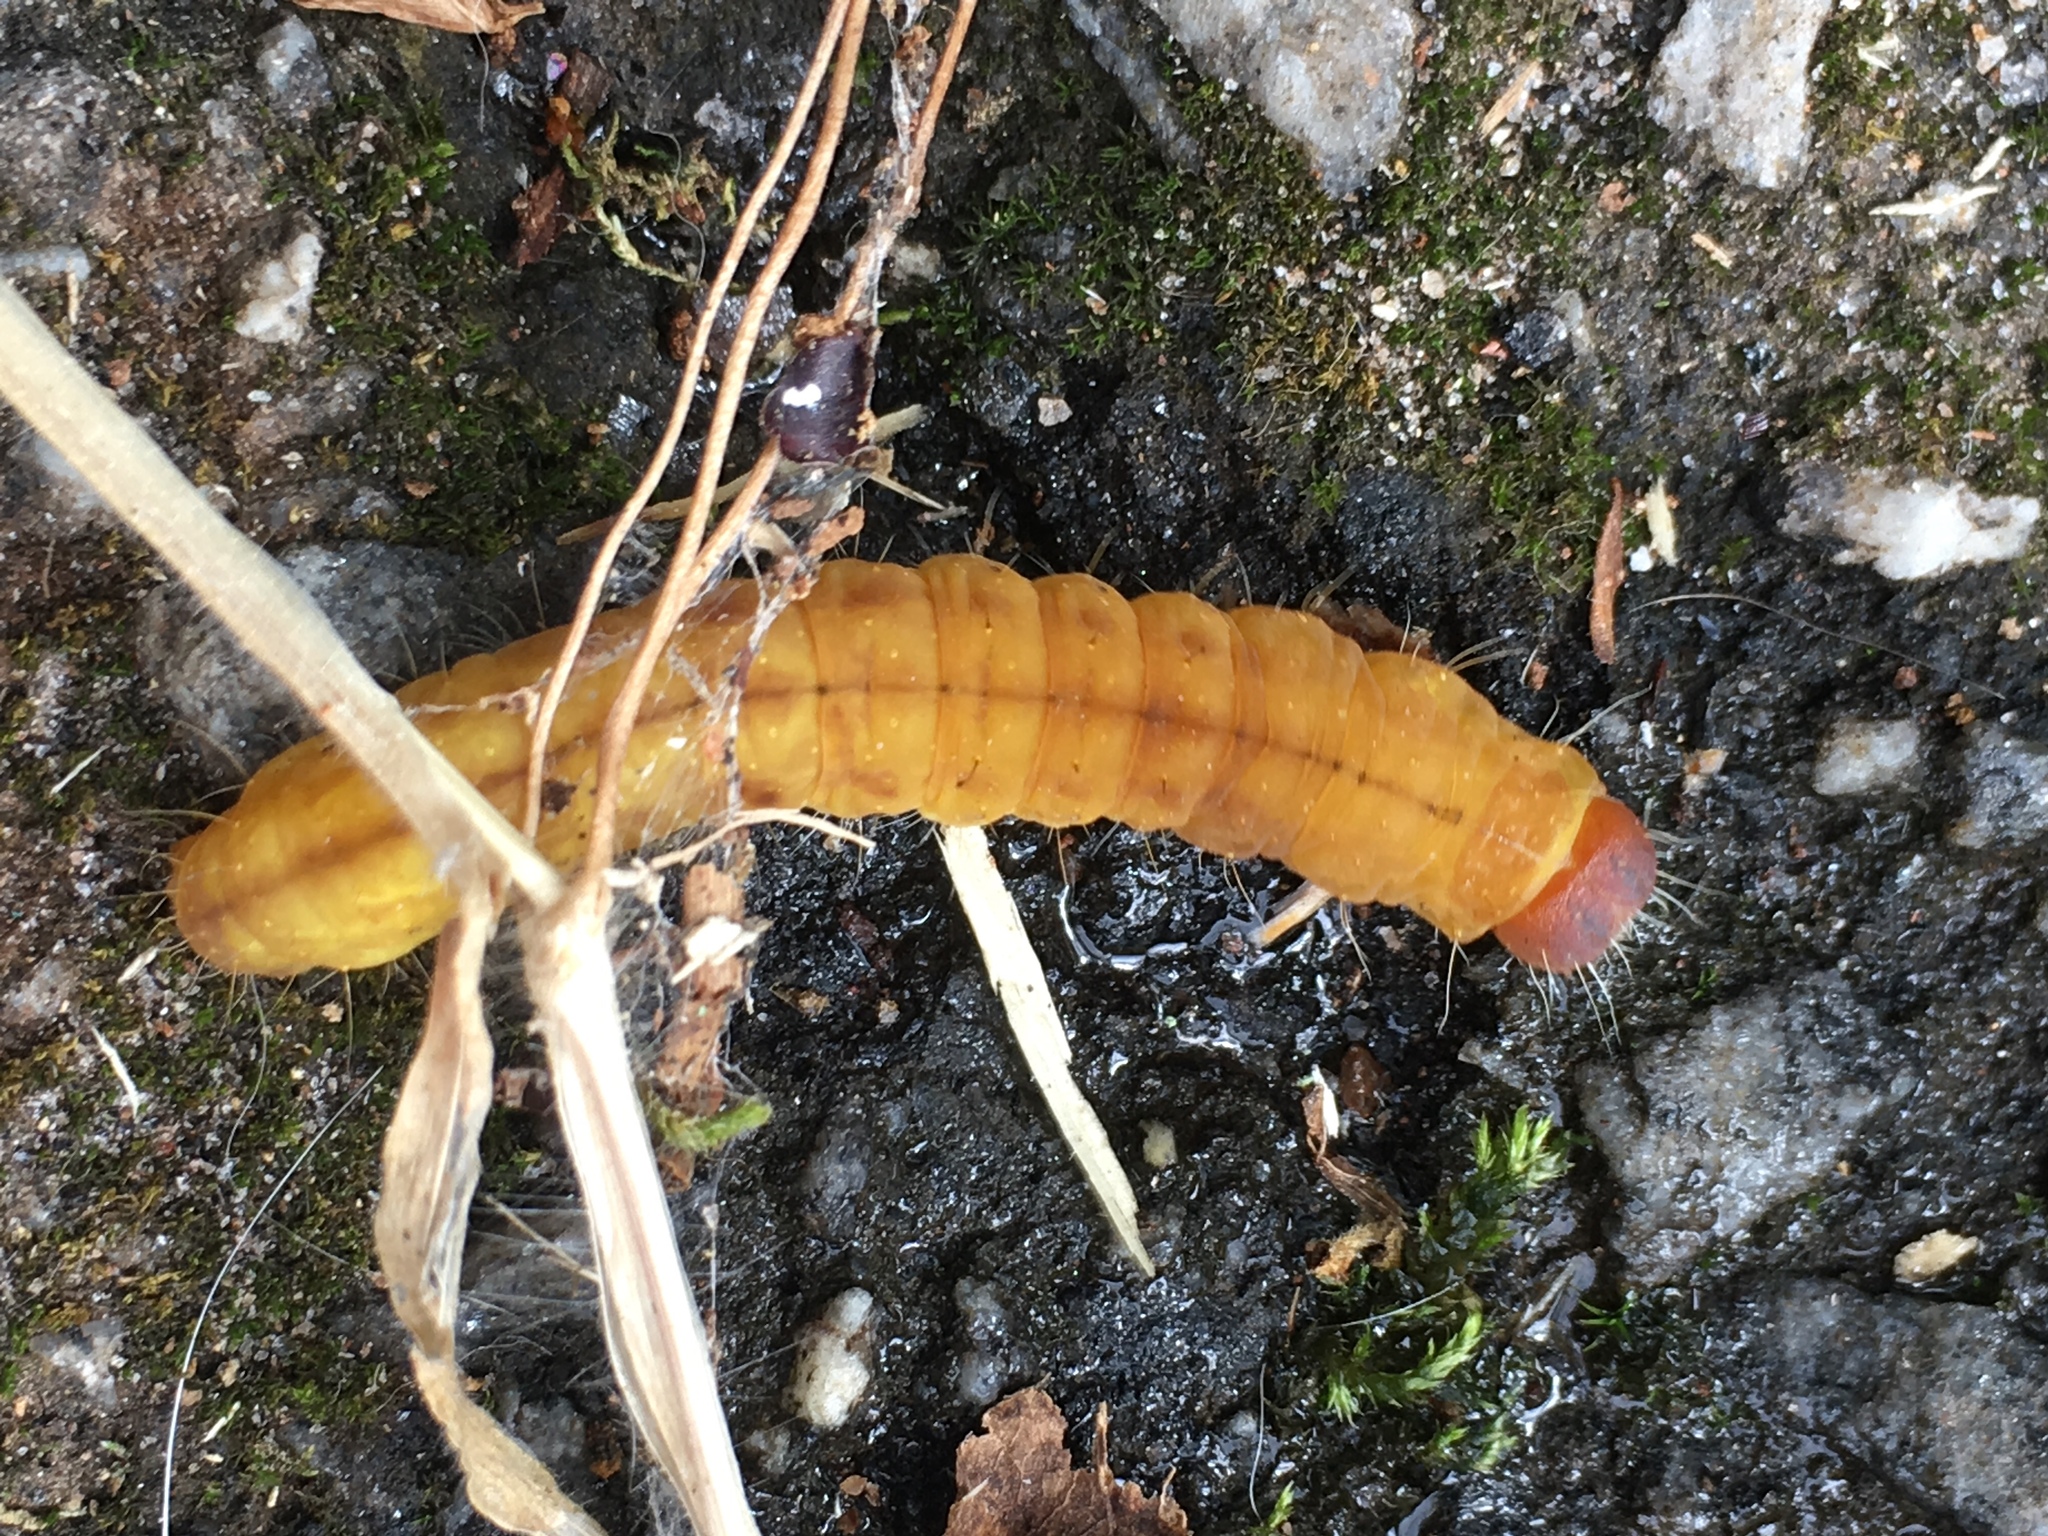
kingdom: Animalia
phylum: Arthropoda
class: Insecta
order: Lepidoptera
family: Noctuidae
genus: Acronicta
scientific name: Acronicta afflicta
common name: Afflicted dagger moth
